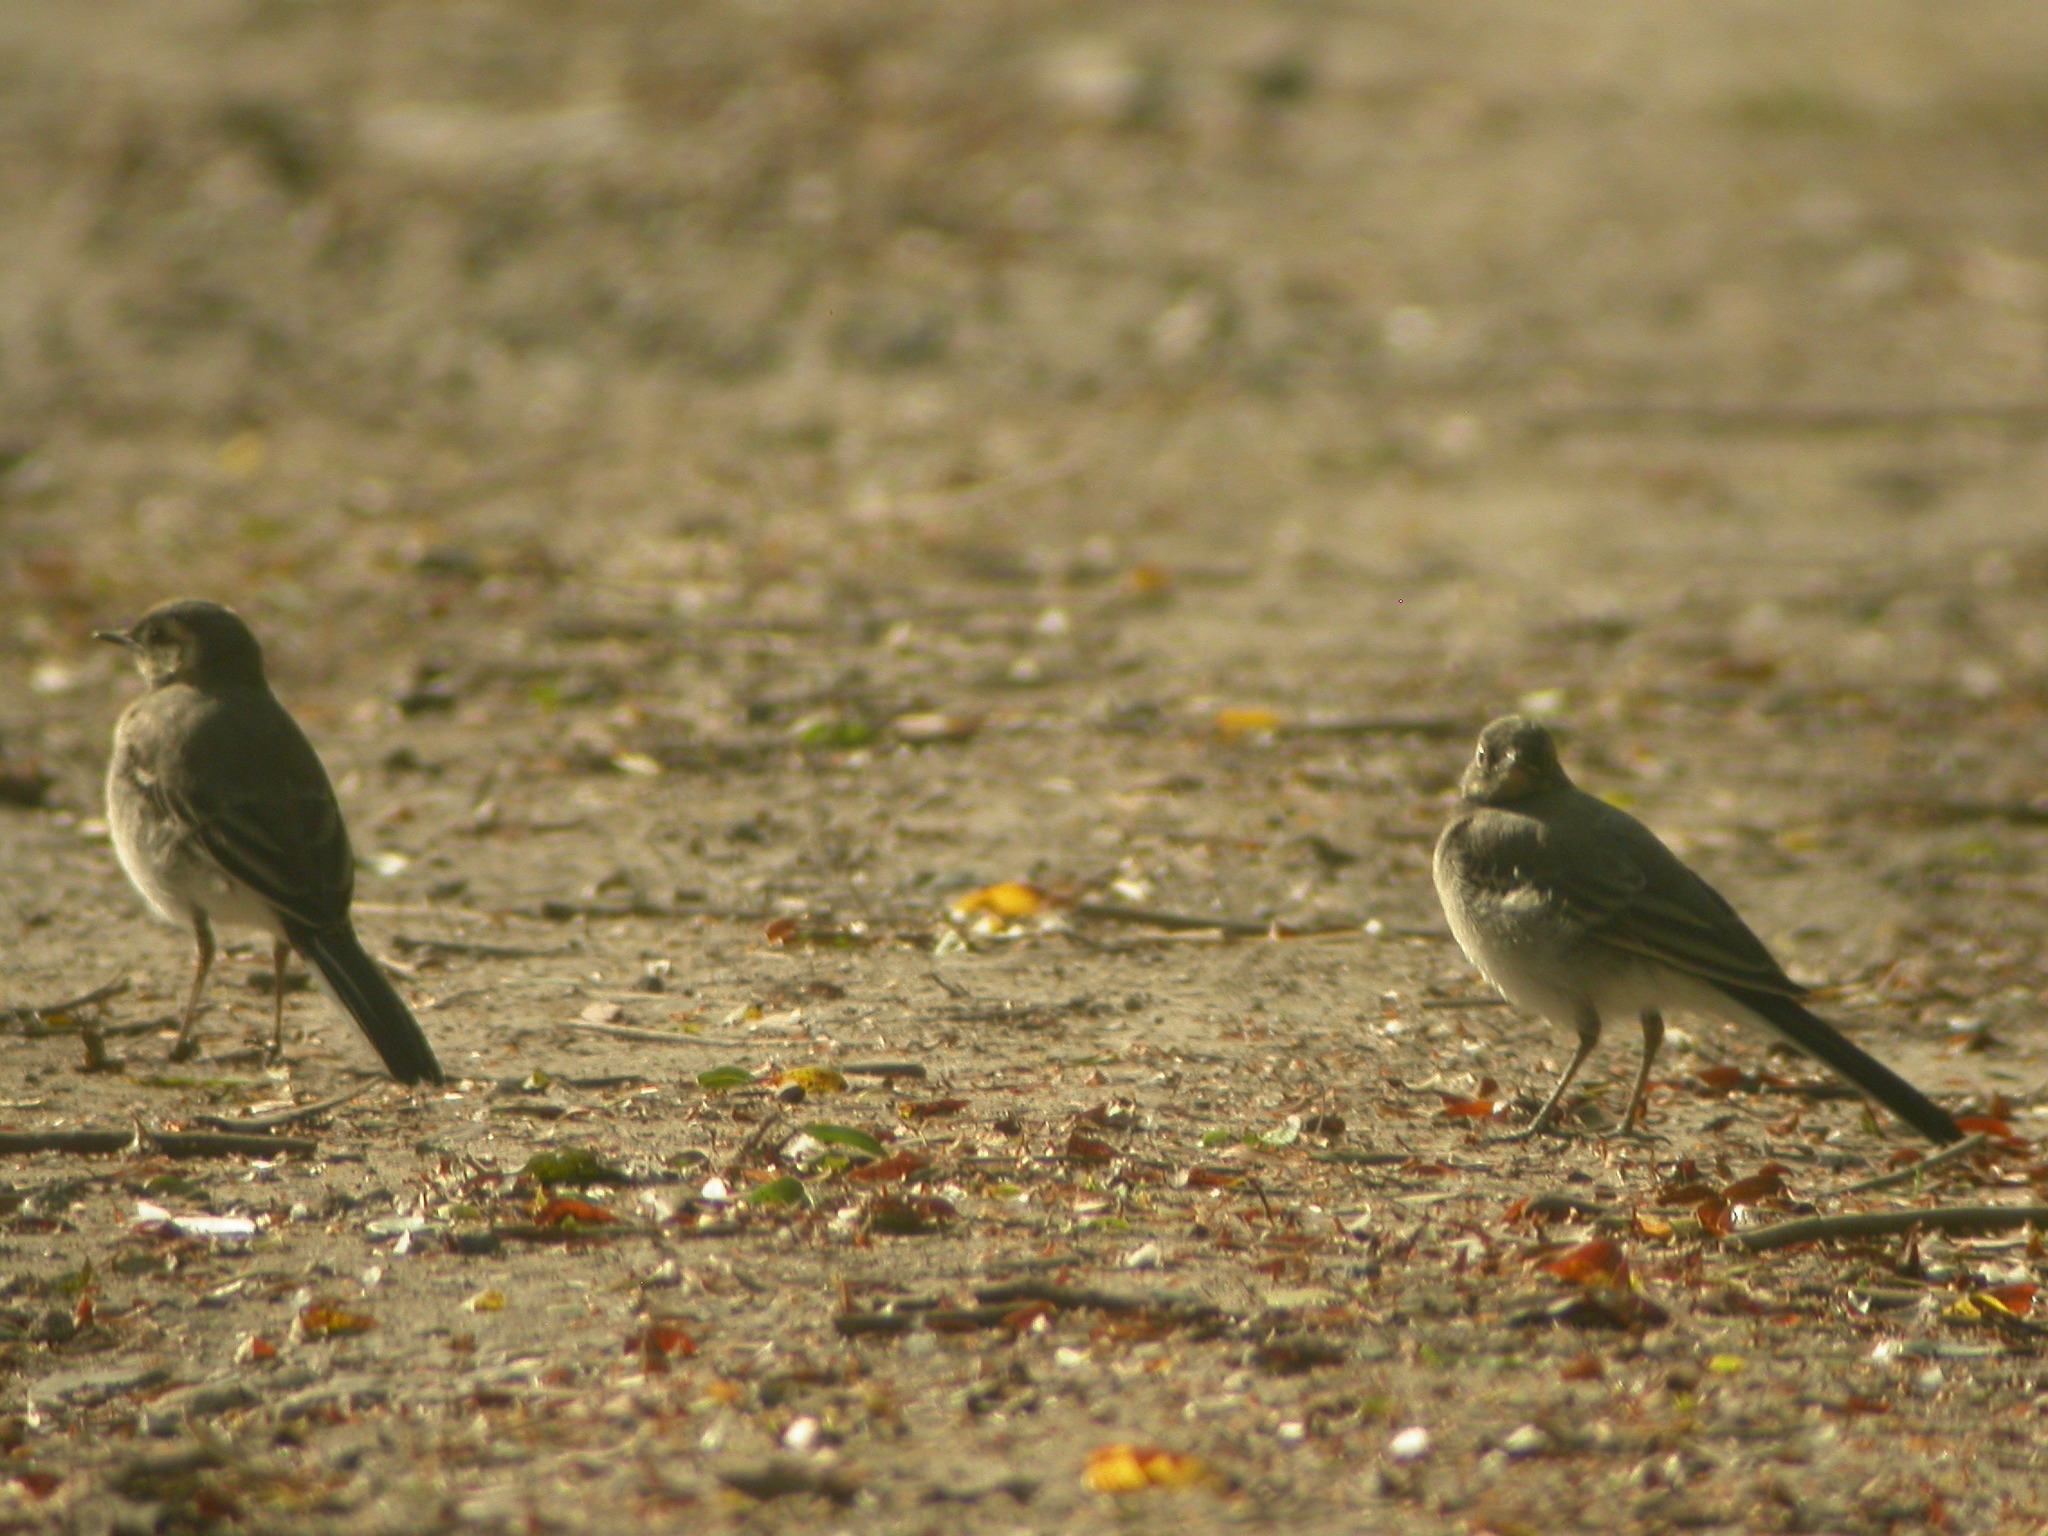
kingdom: Animalia
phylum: Chordata
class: Aves
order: Passeriformes
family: Motacillidae
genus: Motacilla
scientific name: Motacilla alba
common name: White wagtail
